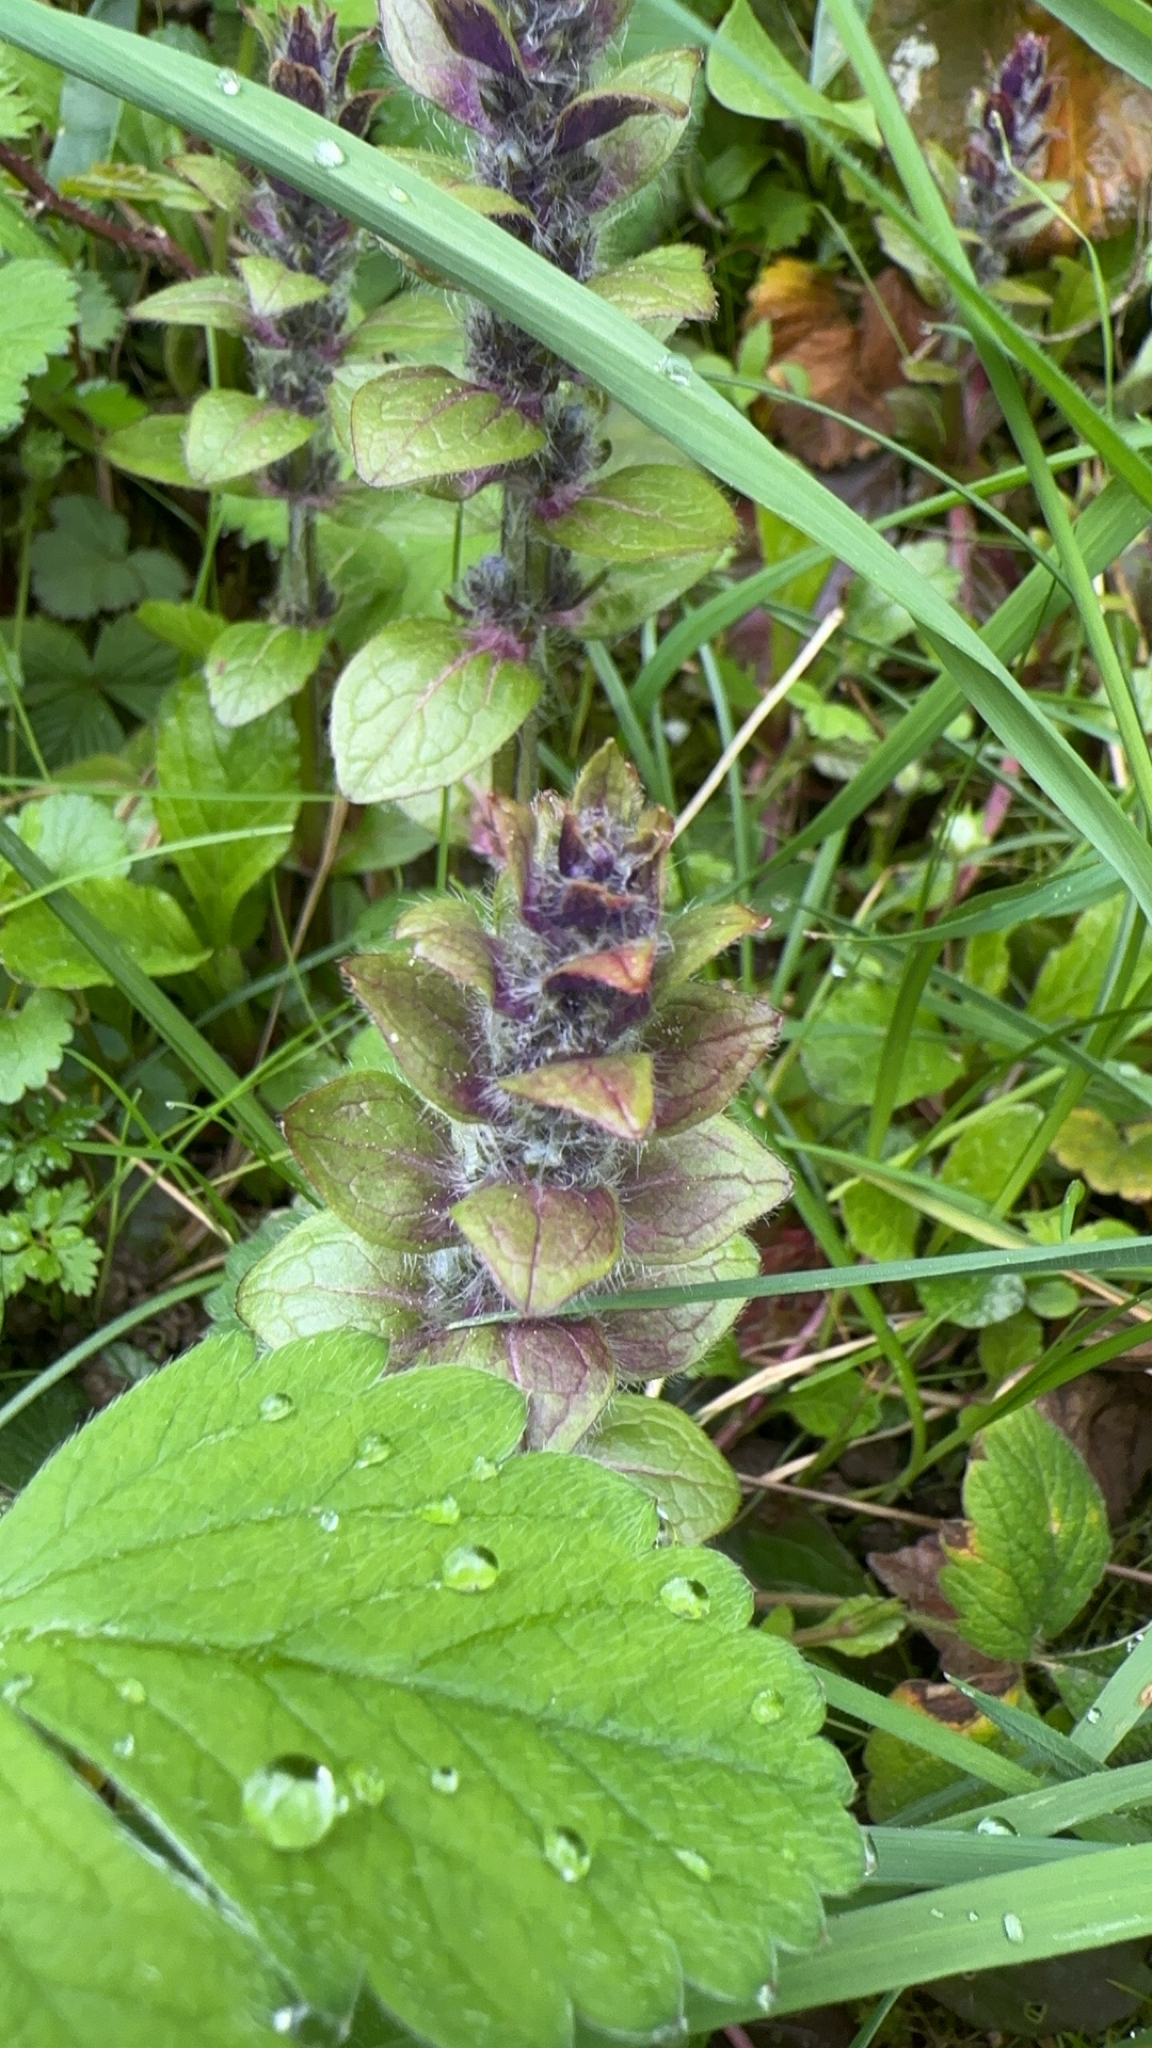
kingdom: Plantae
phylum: Tracheophyta
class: Magnoliopsida
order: Lamiales
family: Lamiaceae
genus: Ajuga
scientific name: Ajuga pyramidalis
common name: Pyramid bugle
